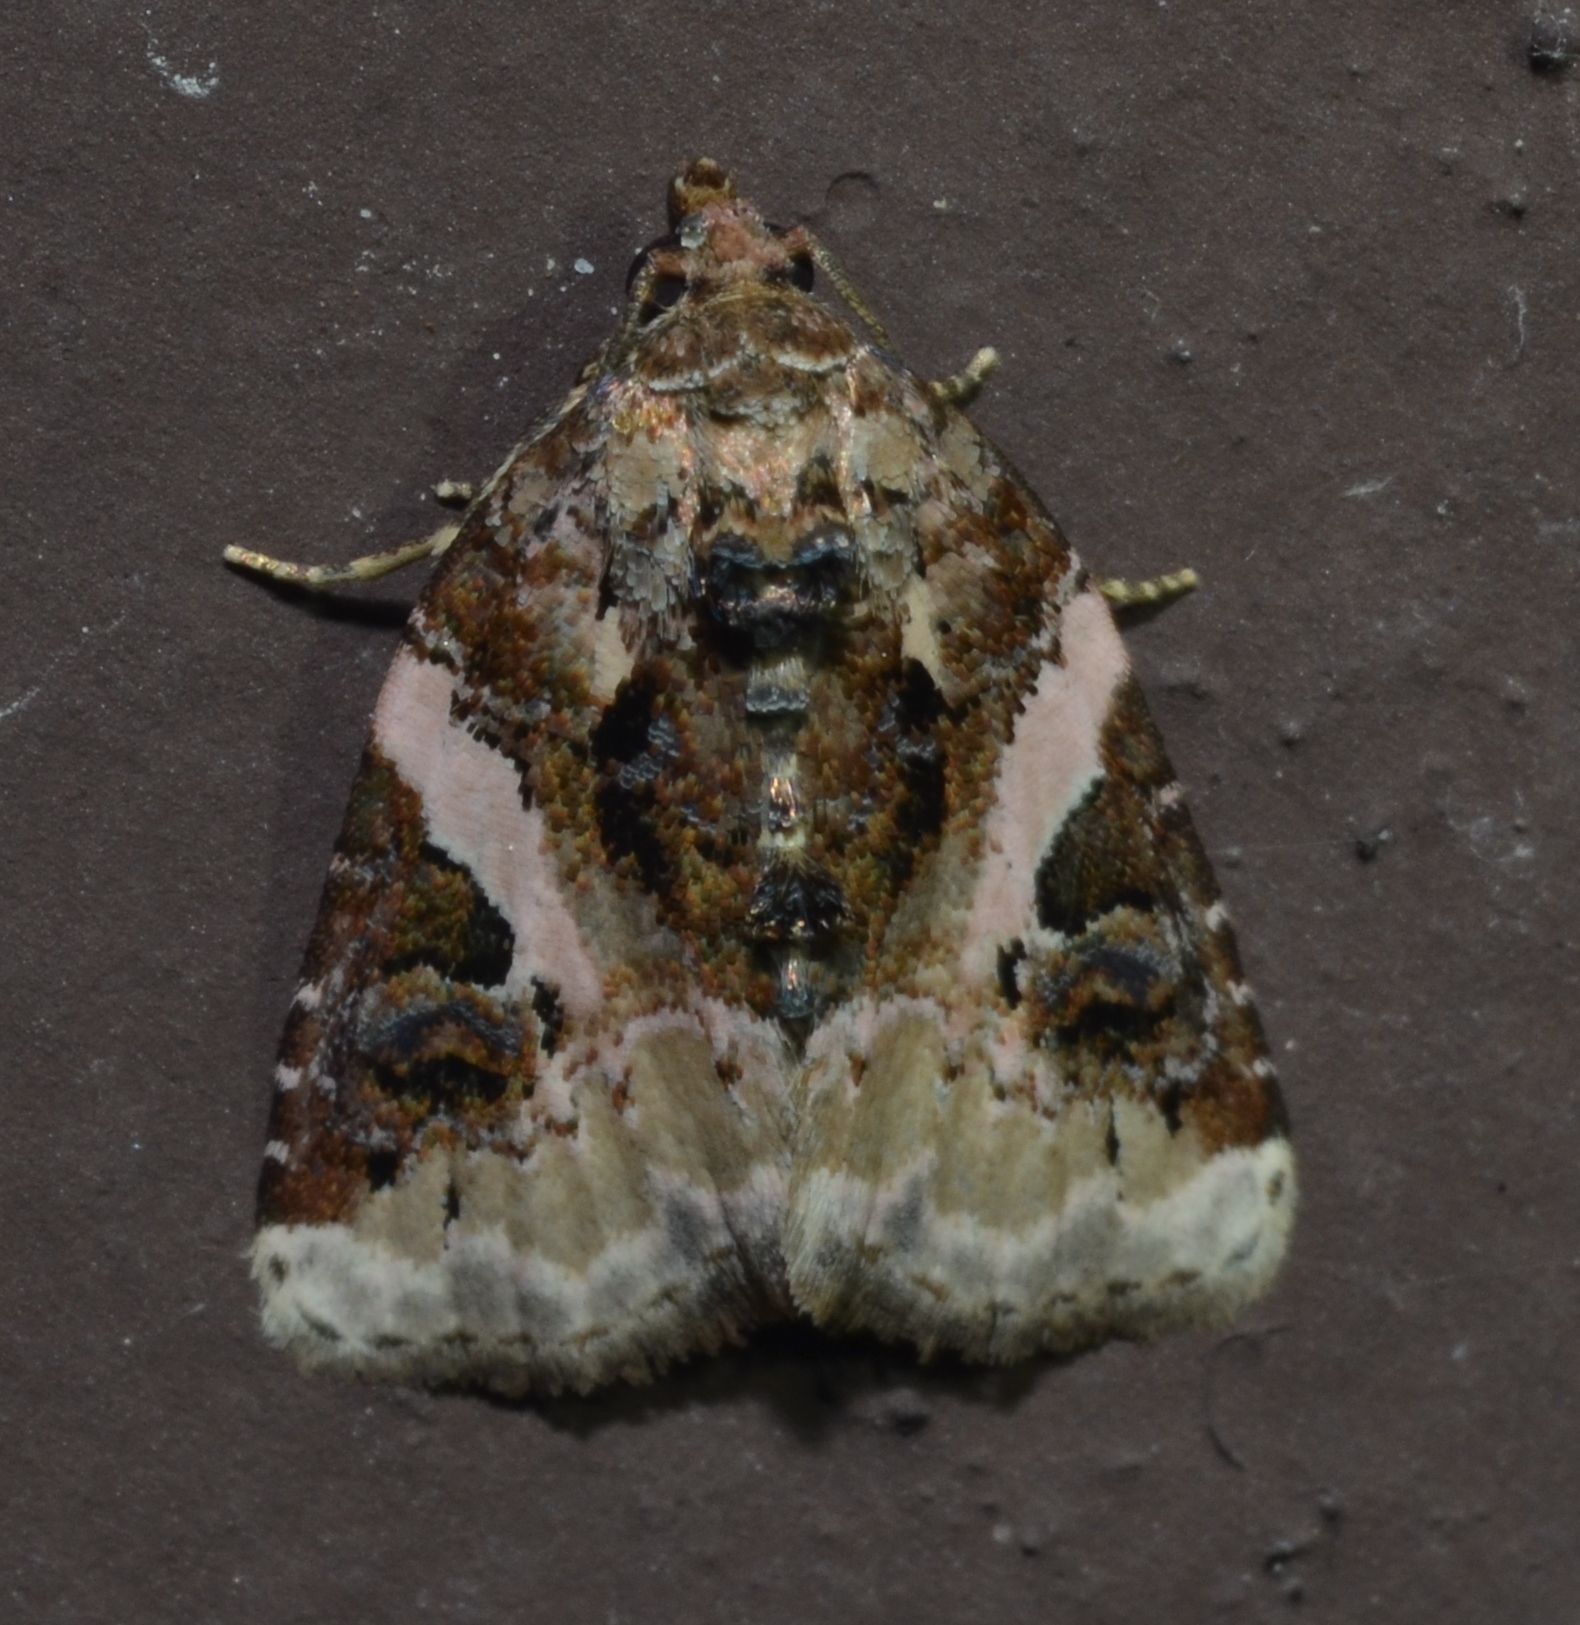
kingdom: Animalia
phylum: Arthropoda
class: Insecta
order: Lepidoptera
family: Noctuidae
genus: Pseudeustrotia
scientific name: Pseudeustrotia carneola
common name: Pink-barred lithacodia moth
